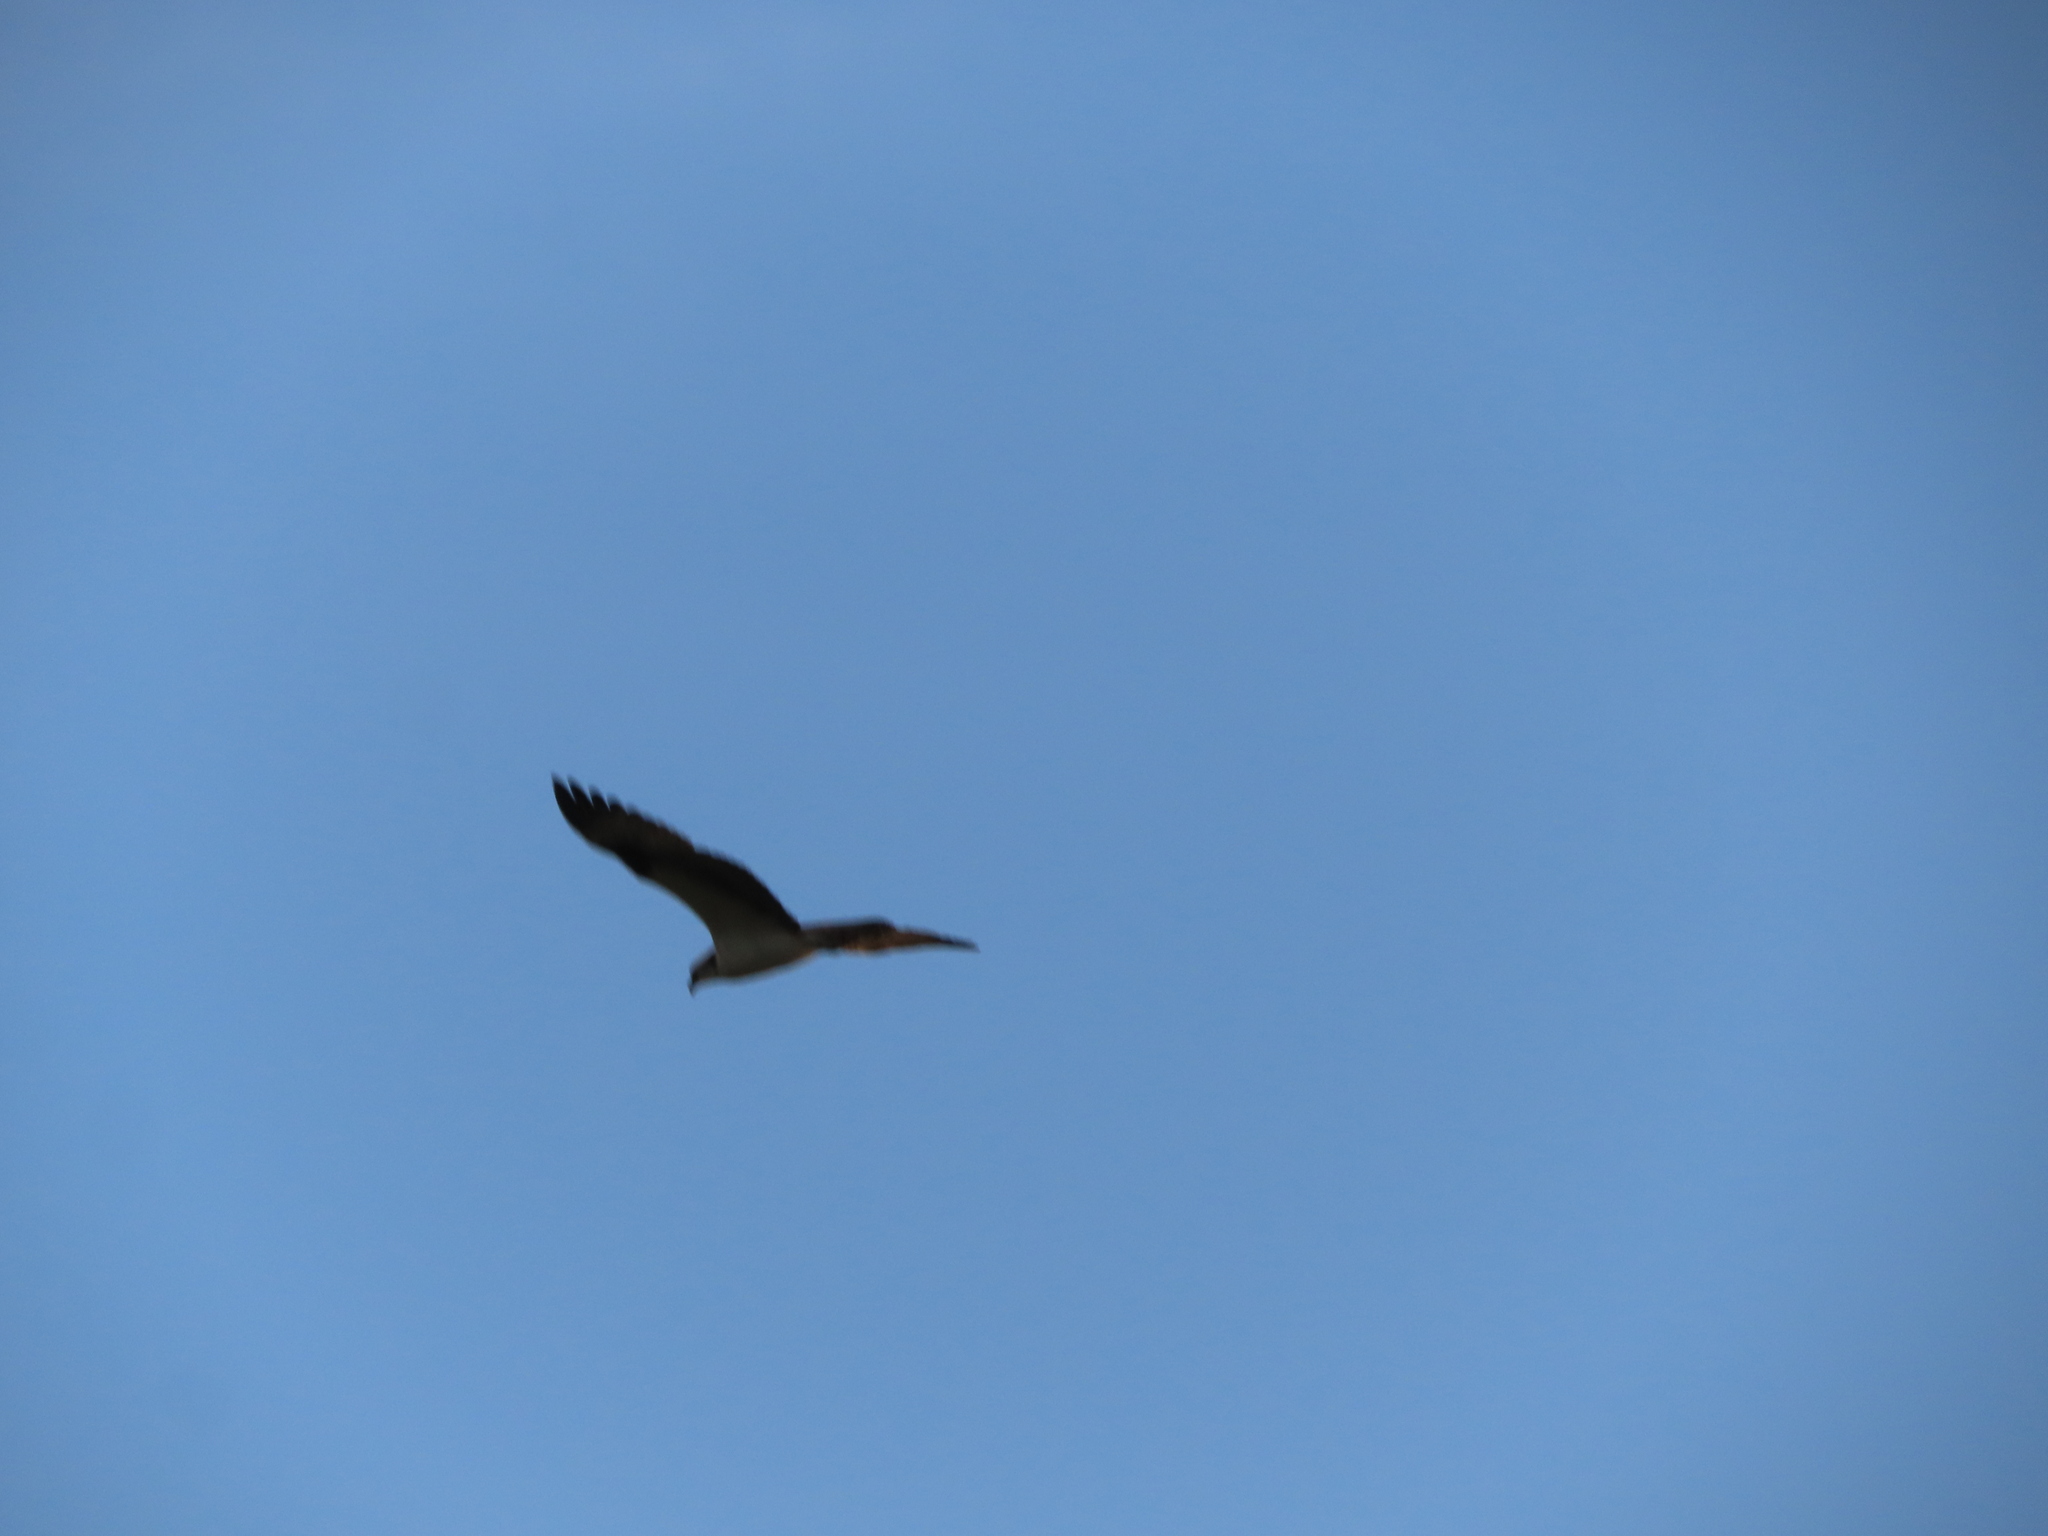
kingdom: Animalia
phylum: Chordata
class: Aves
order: Accipitriformes
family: Pandionidae
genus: Pandion
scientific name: Pandion haliaetus
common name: Osprey
